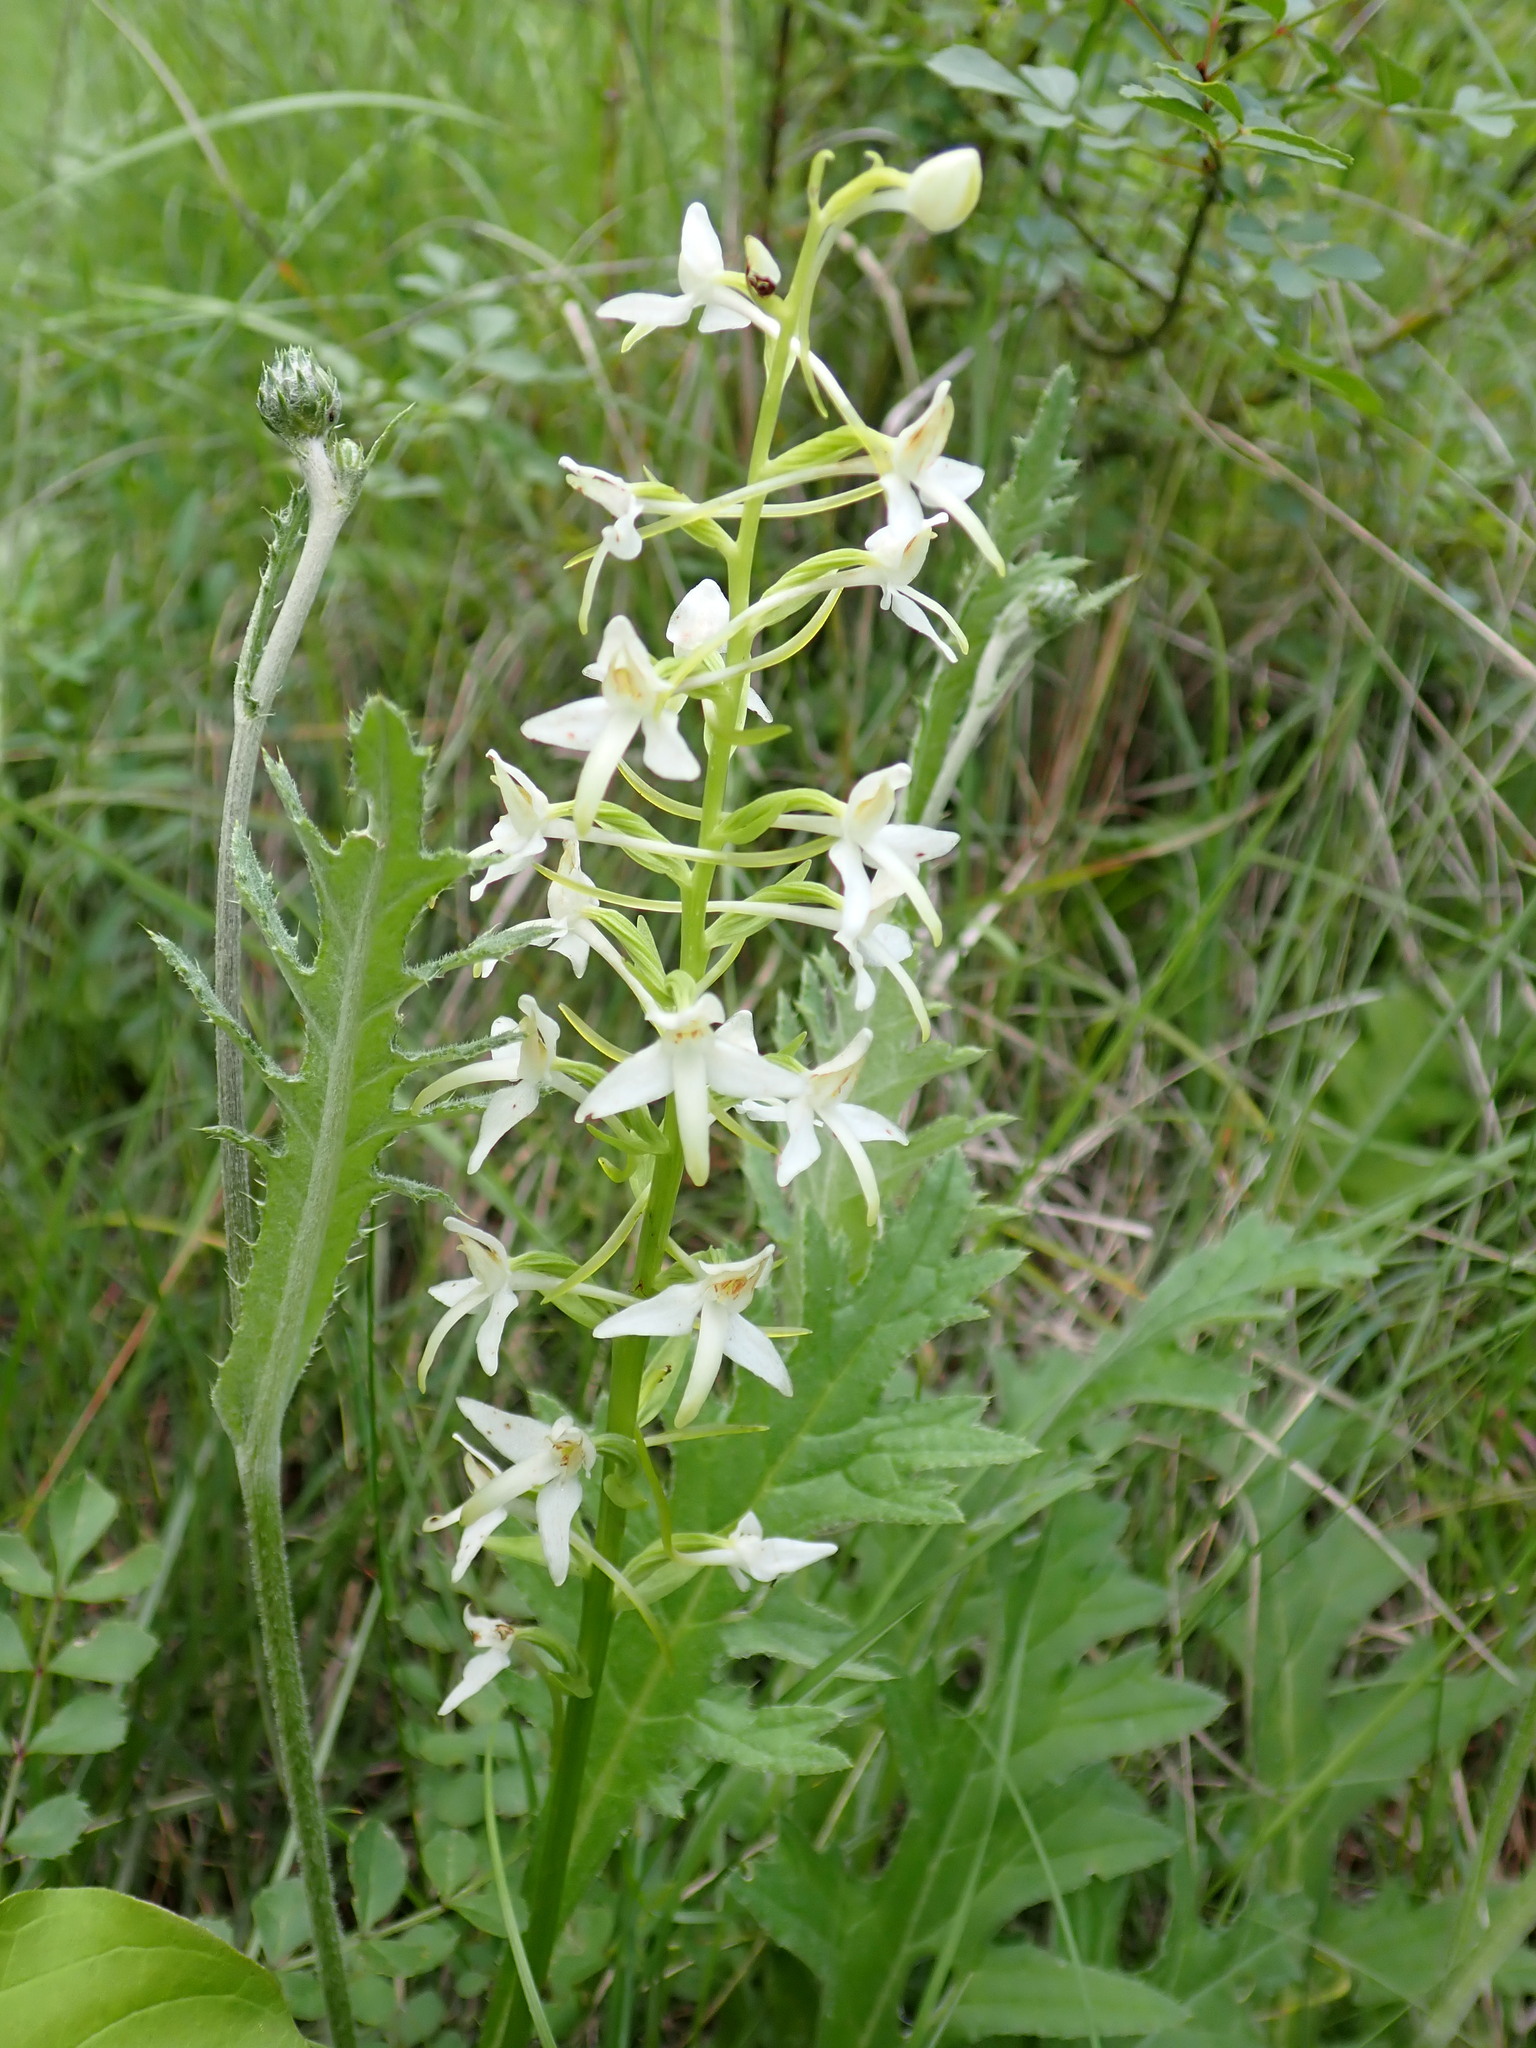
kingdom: Plantae
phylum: Tracheophyta
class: Liliopsida
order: Asparagales
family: Orchidaceae
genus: Platanthera
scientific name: Platanthera bifolia
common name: Lesser butterfly-orchid
